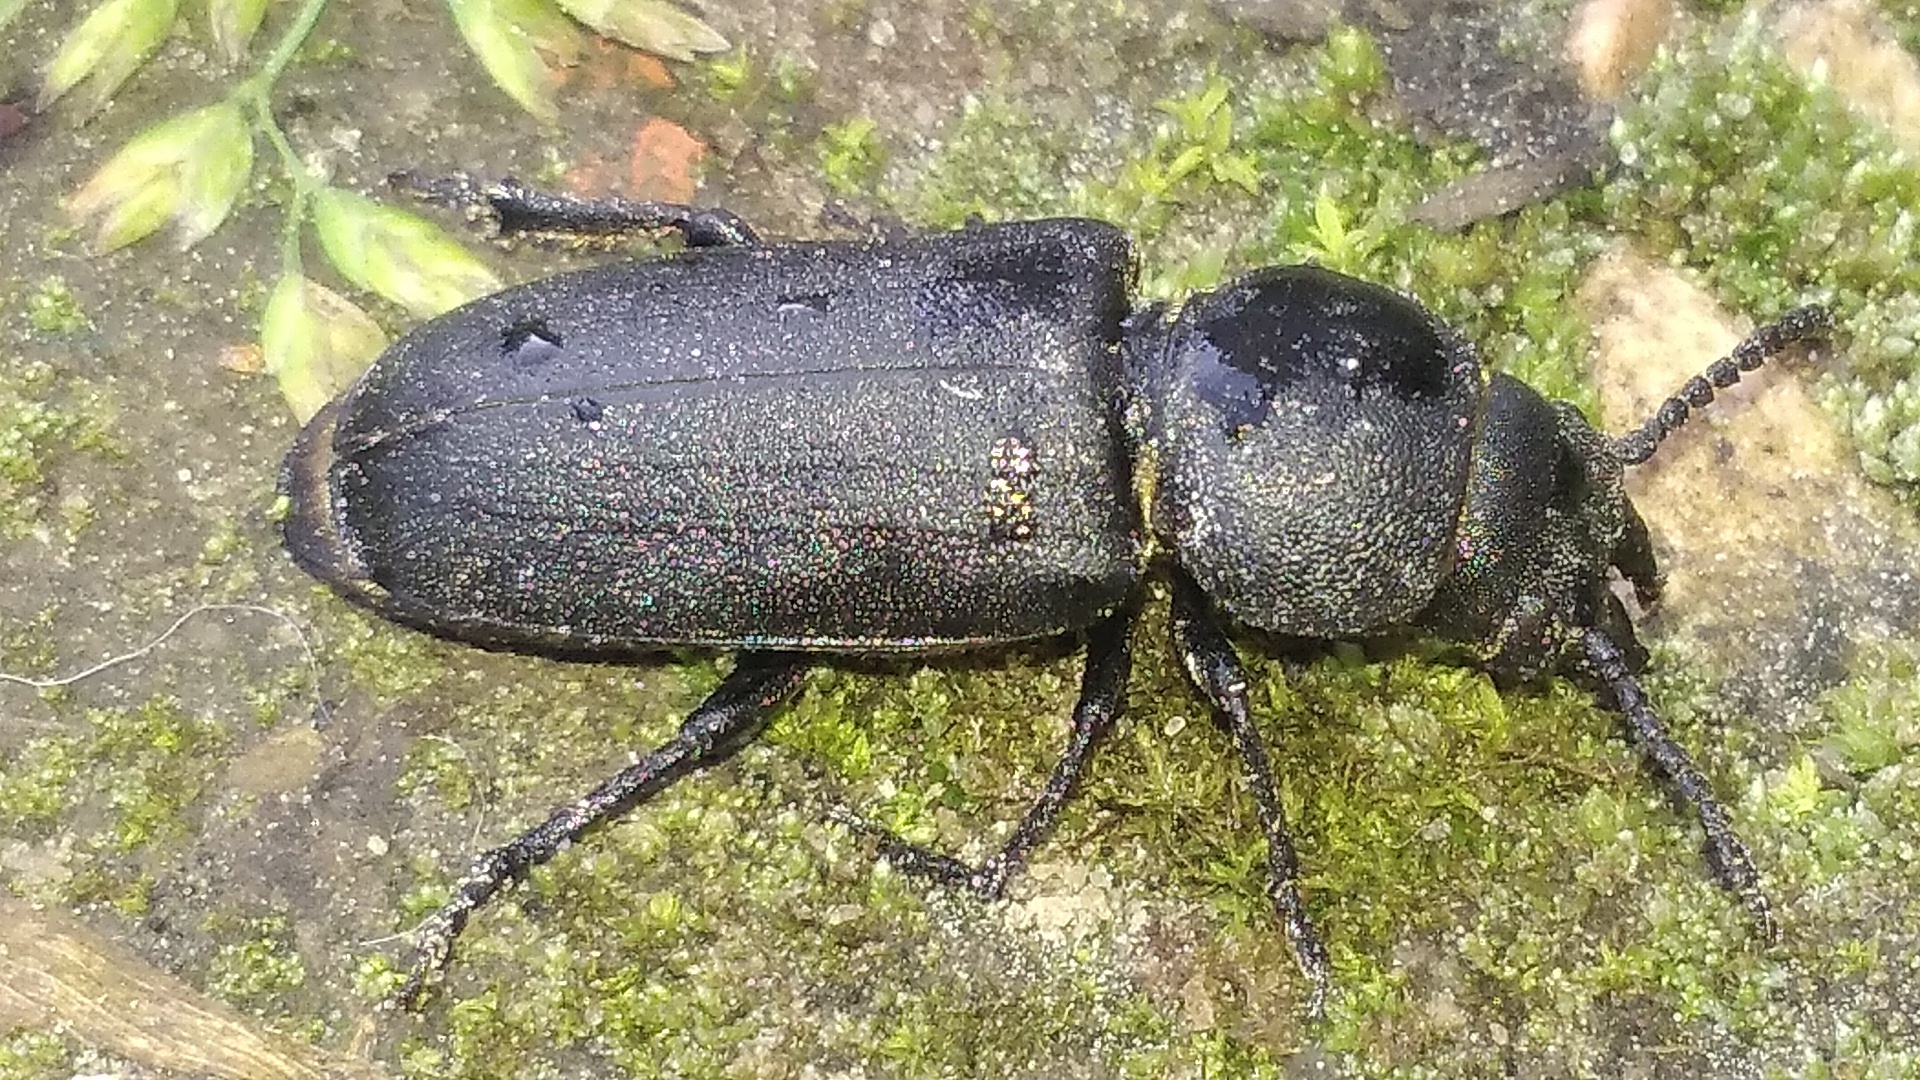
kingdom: Animalia
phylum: Arthropoda
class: Insecta
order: Coleoptera
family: Cerambycidae
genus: Spondylis
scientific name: Spondylis buprestoides
